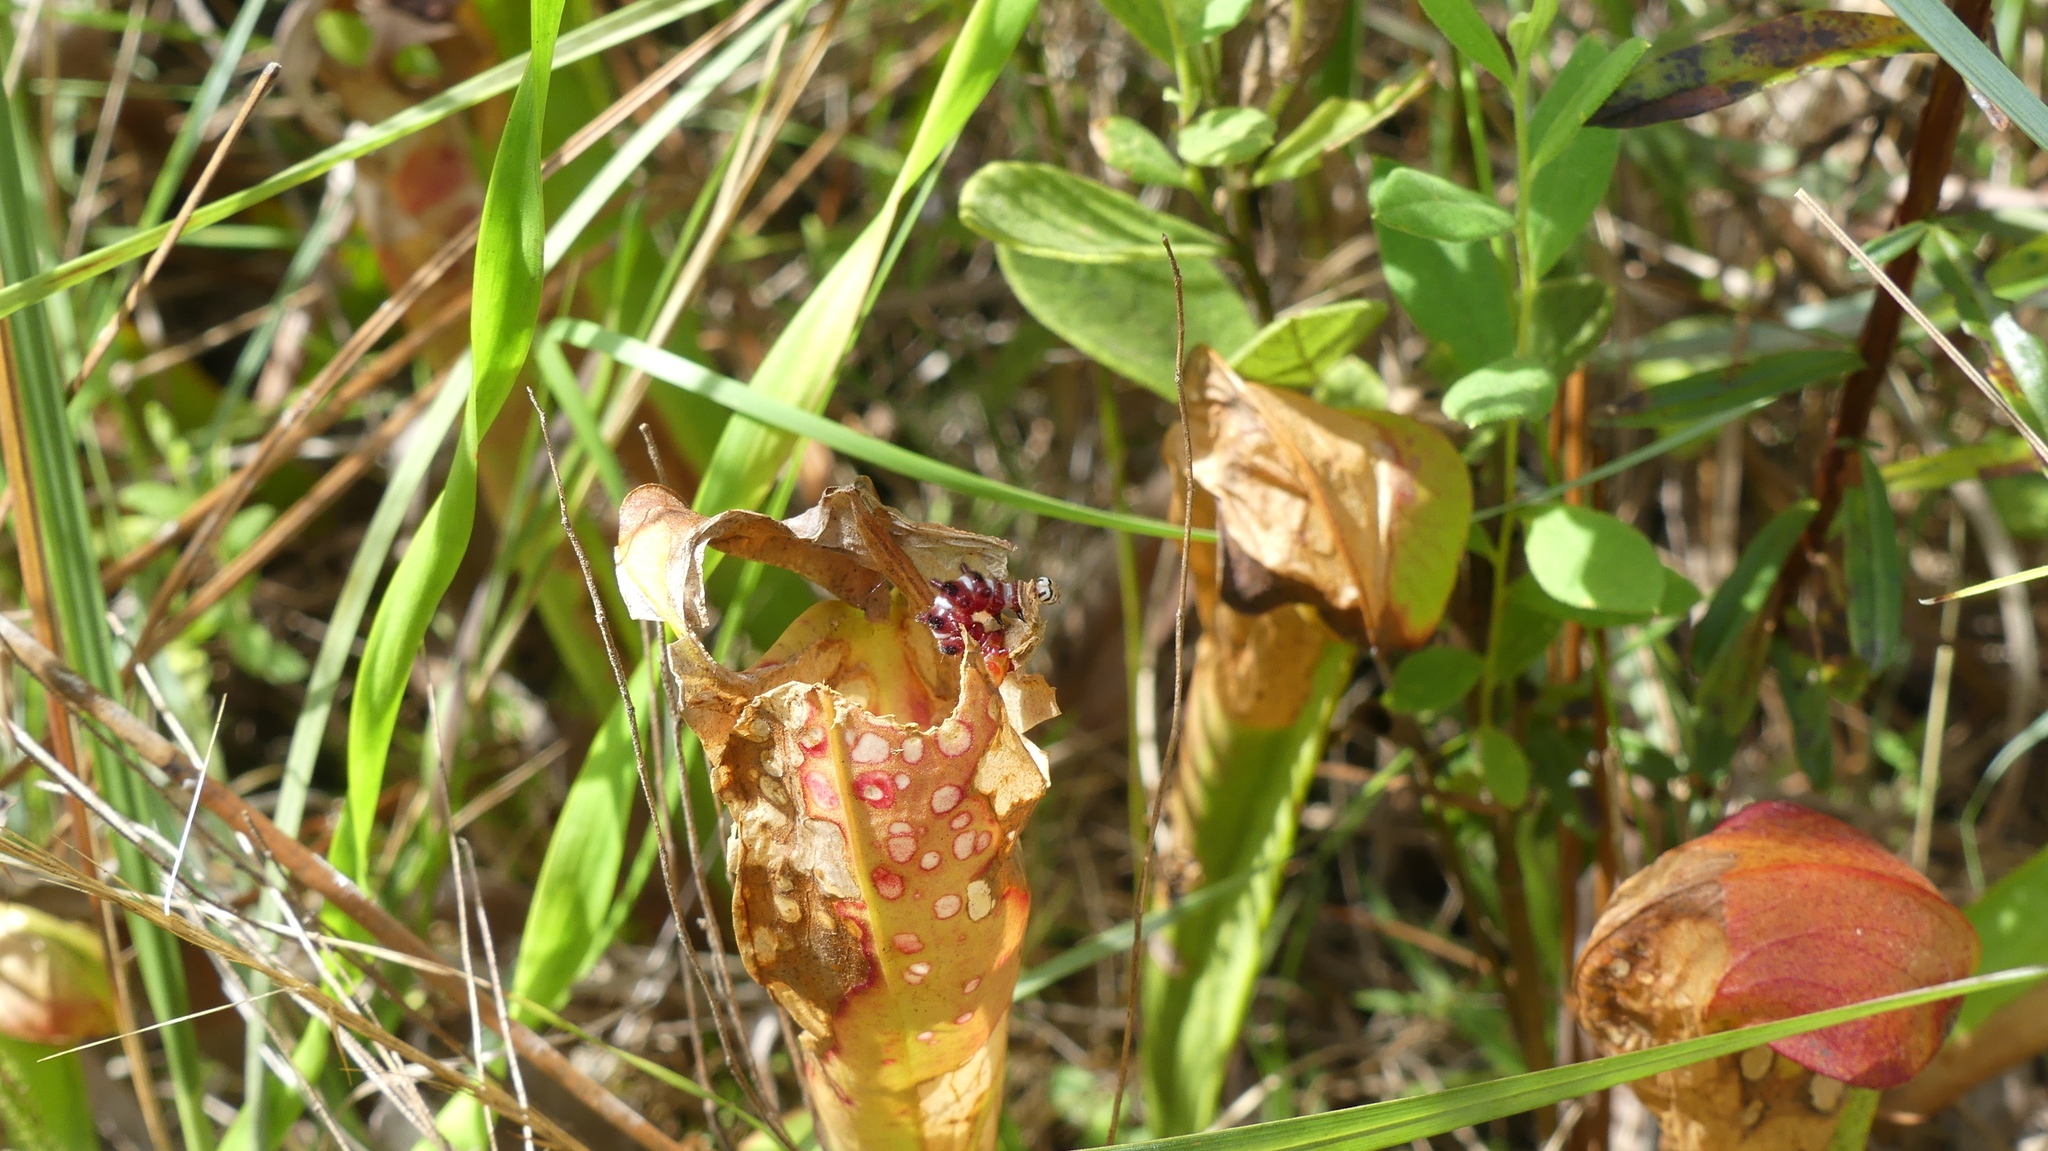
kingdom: Animalia
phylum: Arthropoda
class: Insecta
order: Lepidoptera
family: Noctuidae
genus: Exyra
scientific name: Exyra semicrocea
